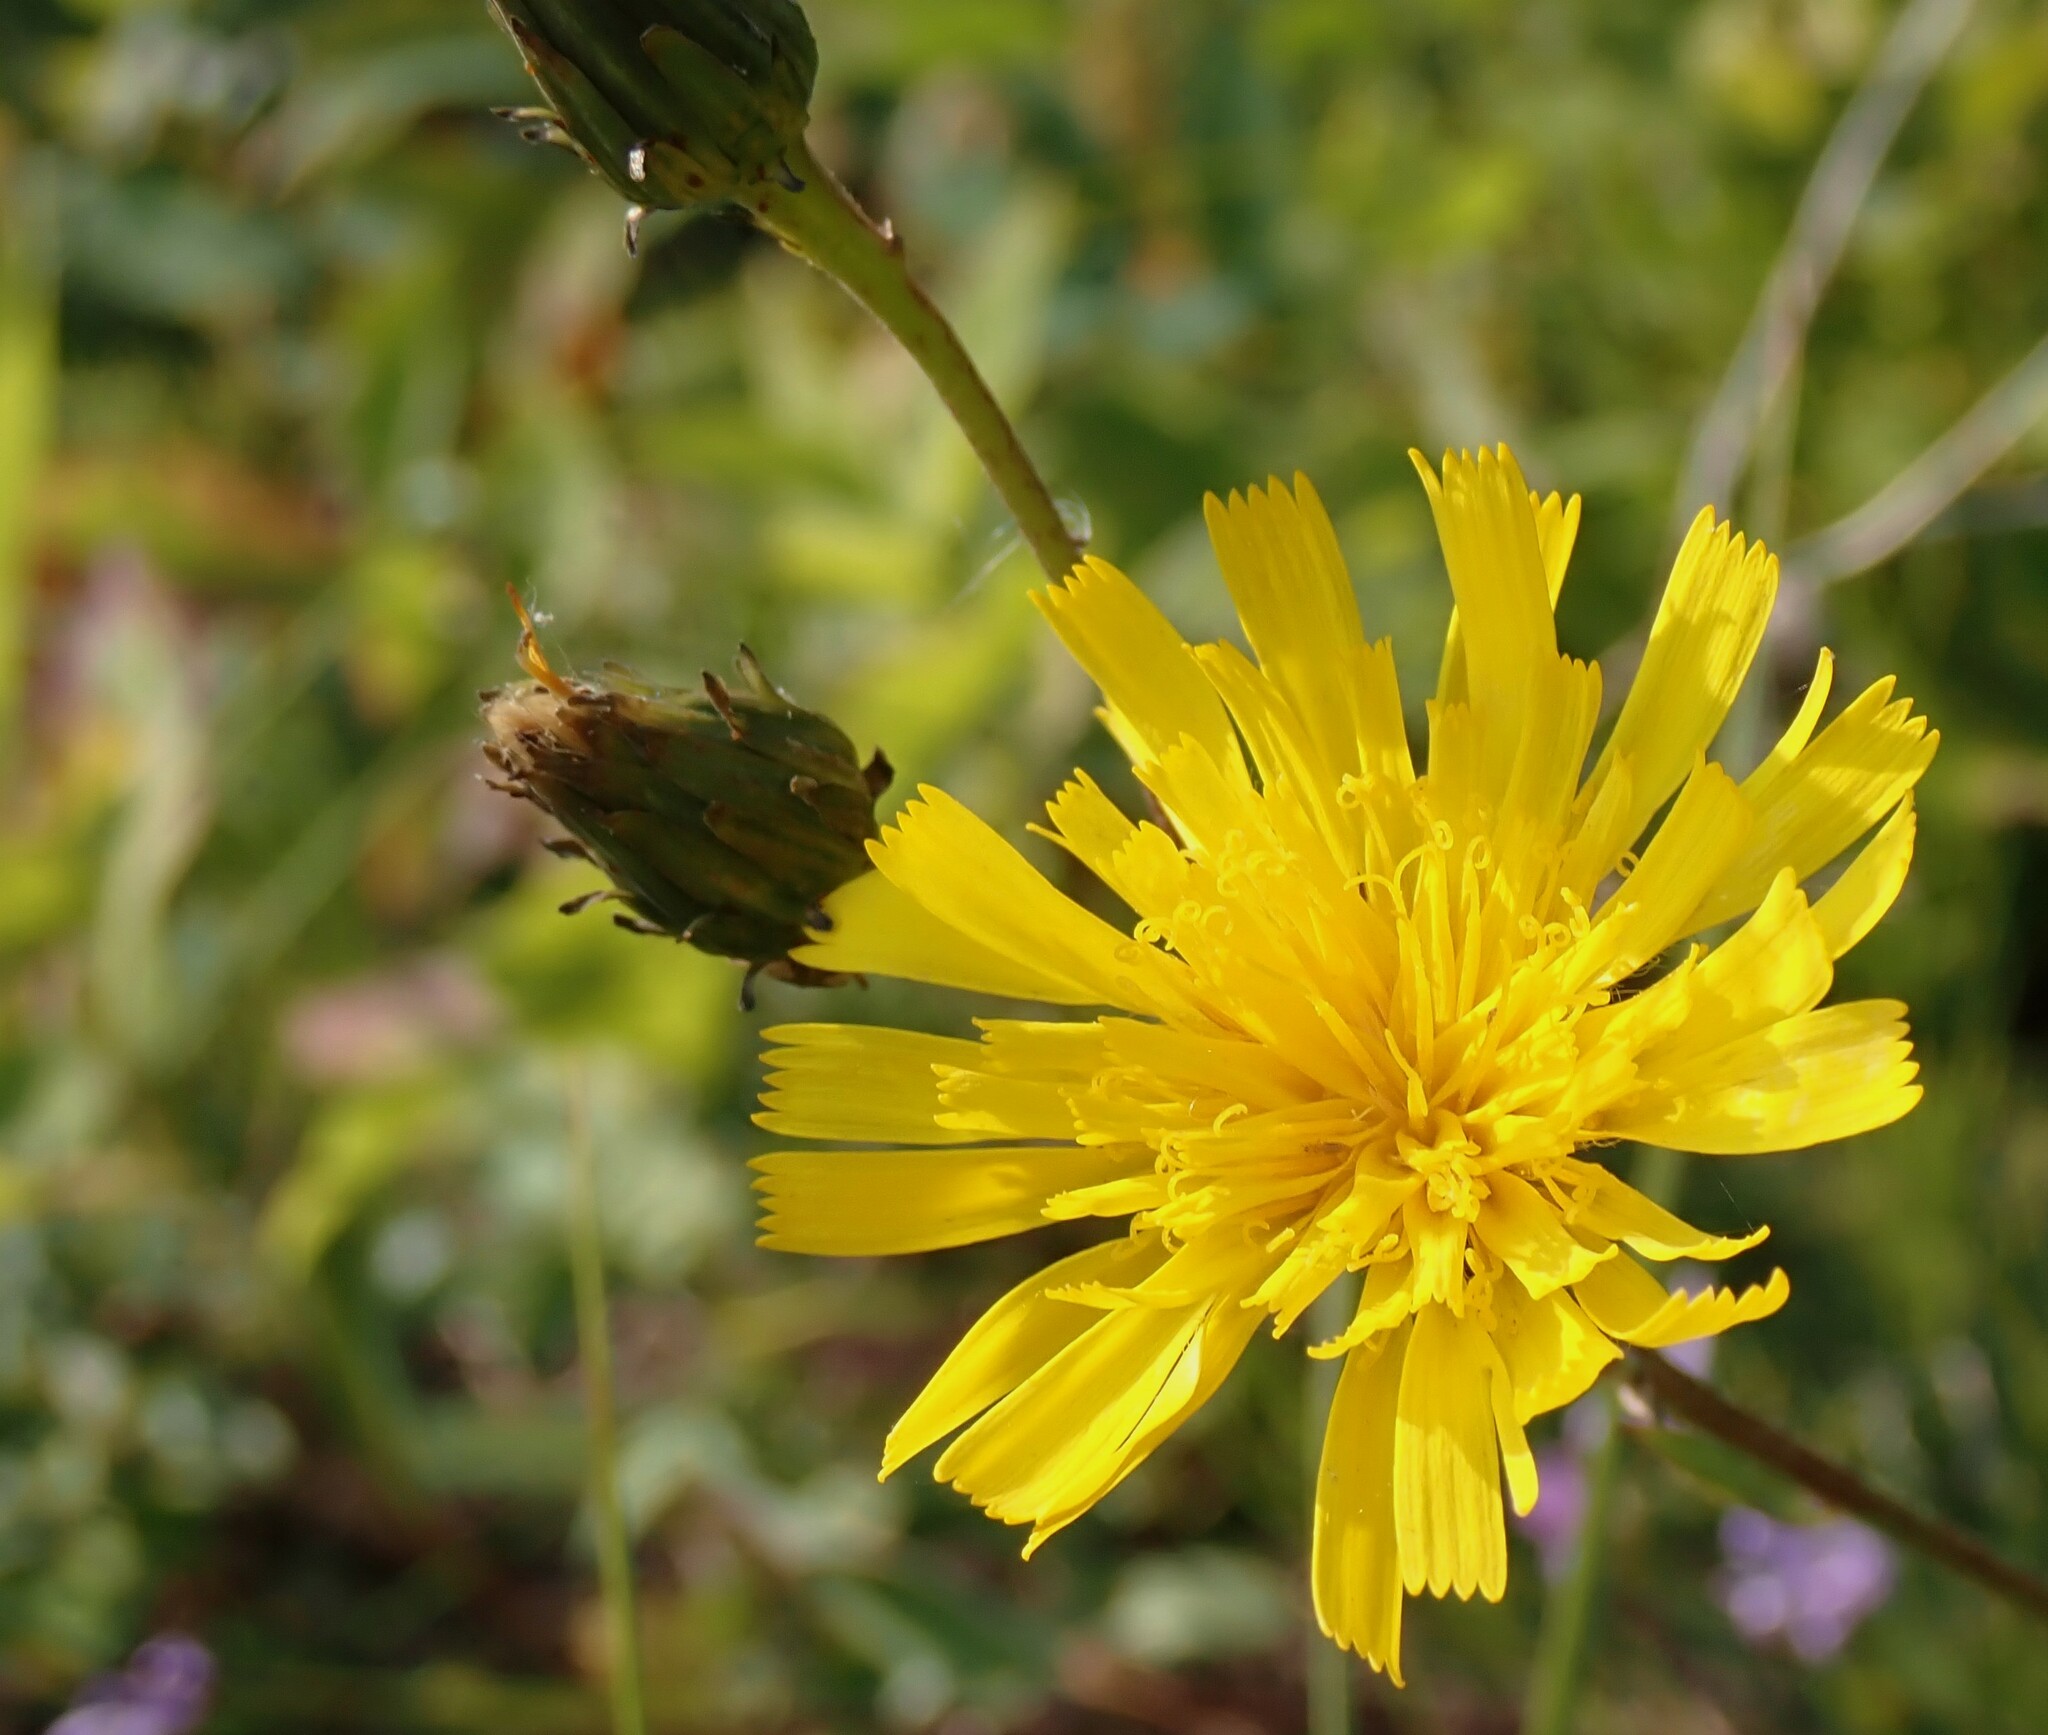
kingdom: Plantae
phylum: Tracheophyta
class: Magnoliopsida
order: Asterales
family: Asteraceae
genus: Hieracium
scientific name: Hieracium umbellatum
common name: Northern hawkweed
